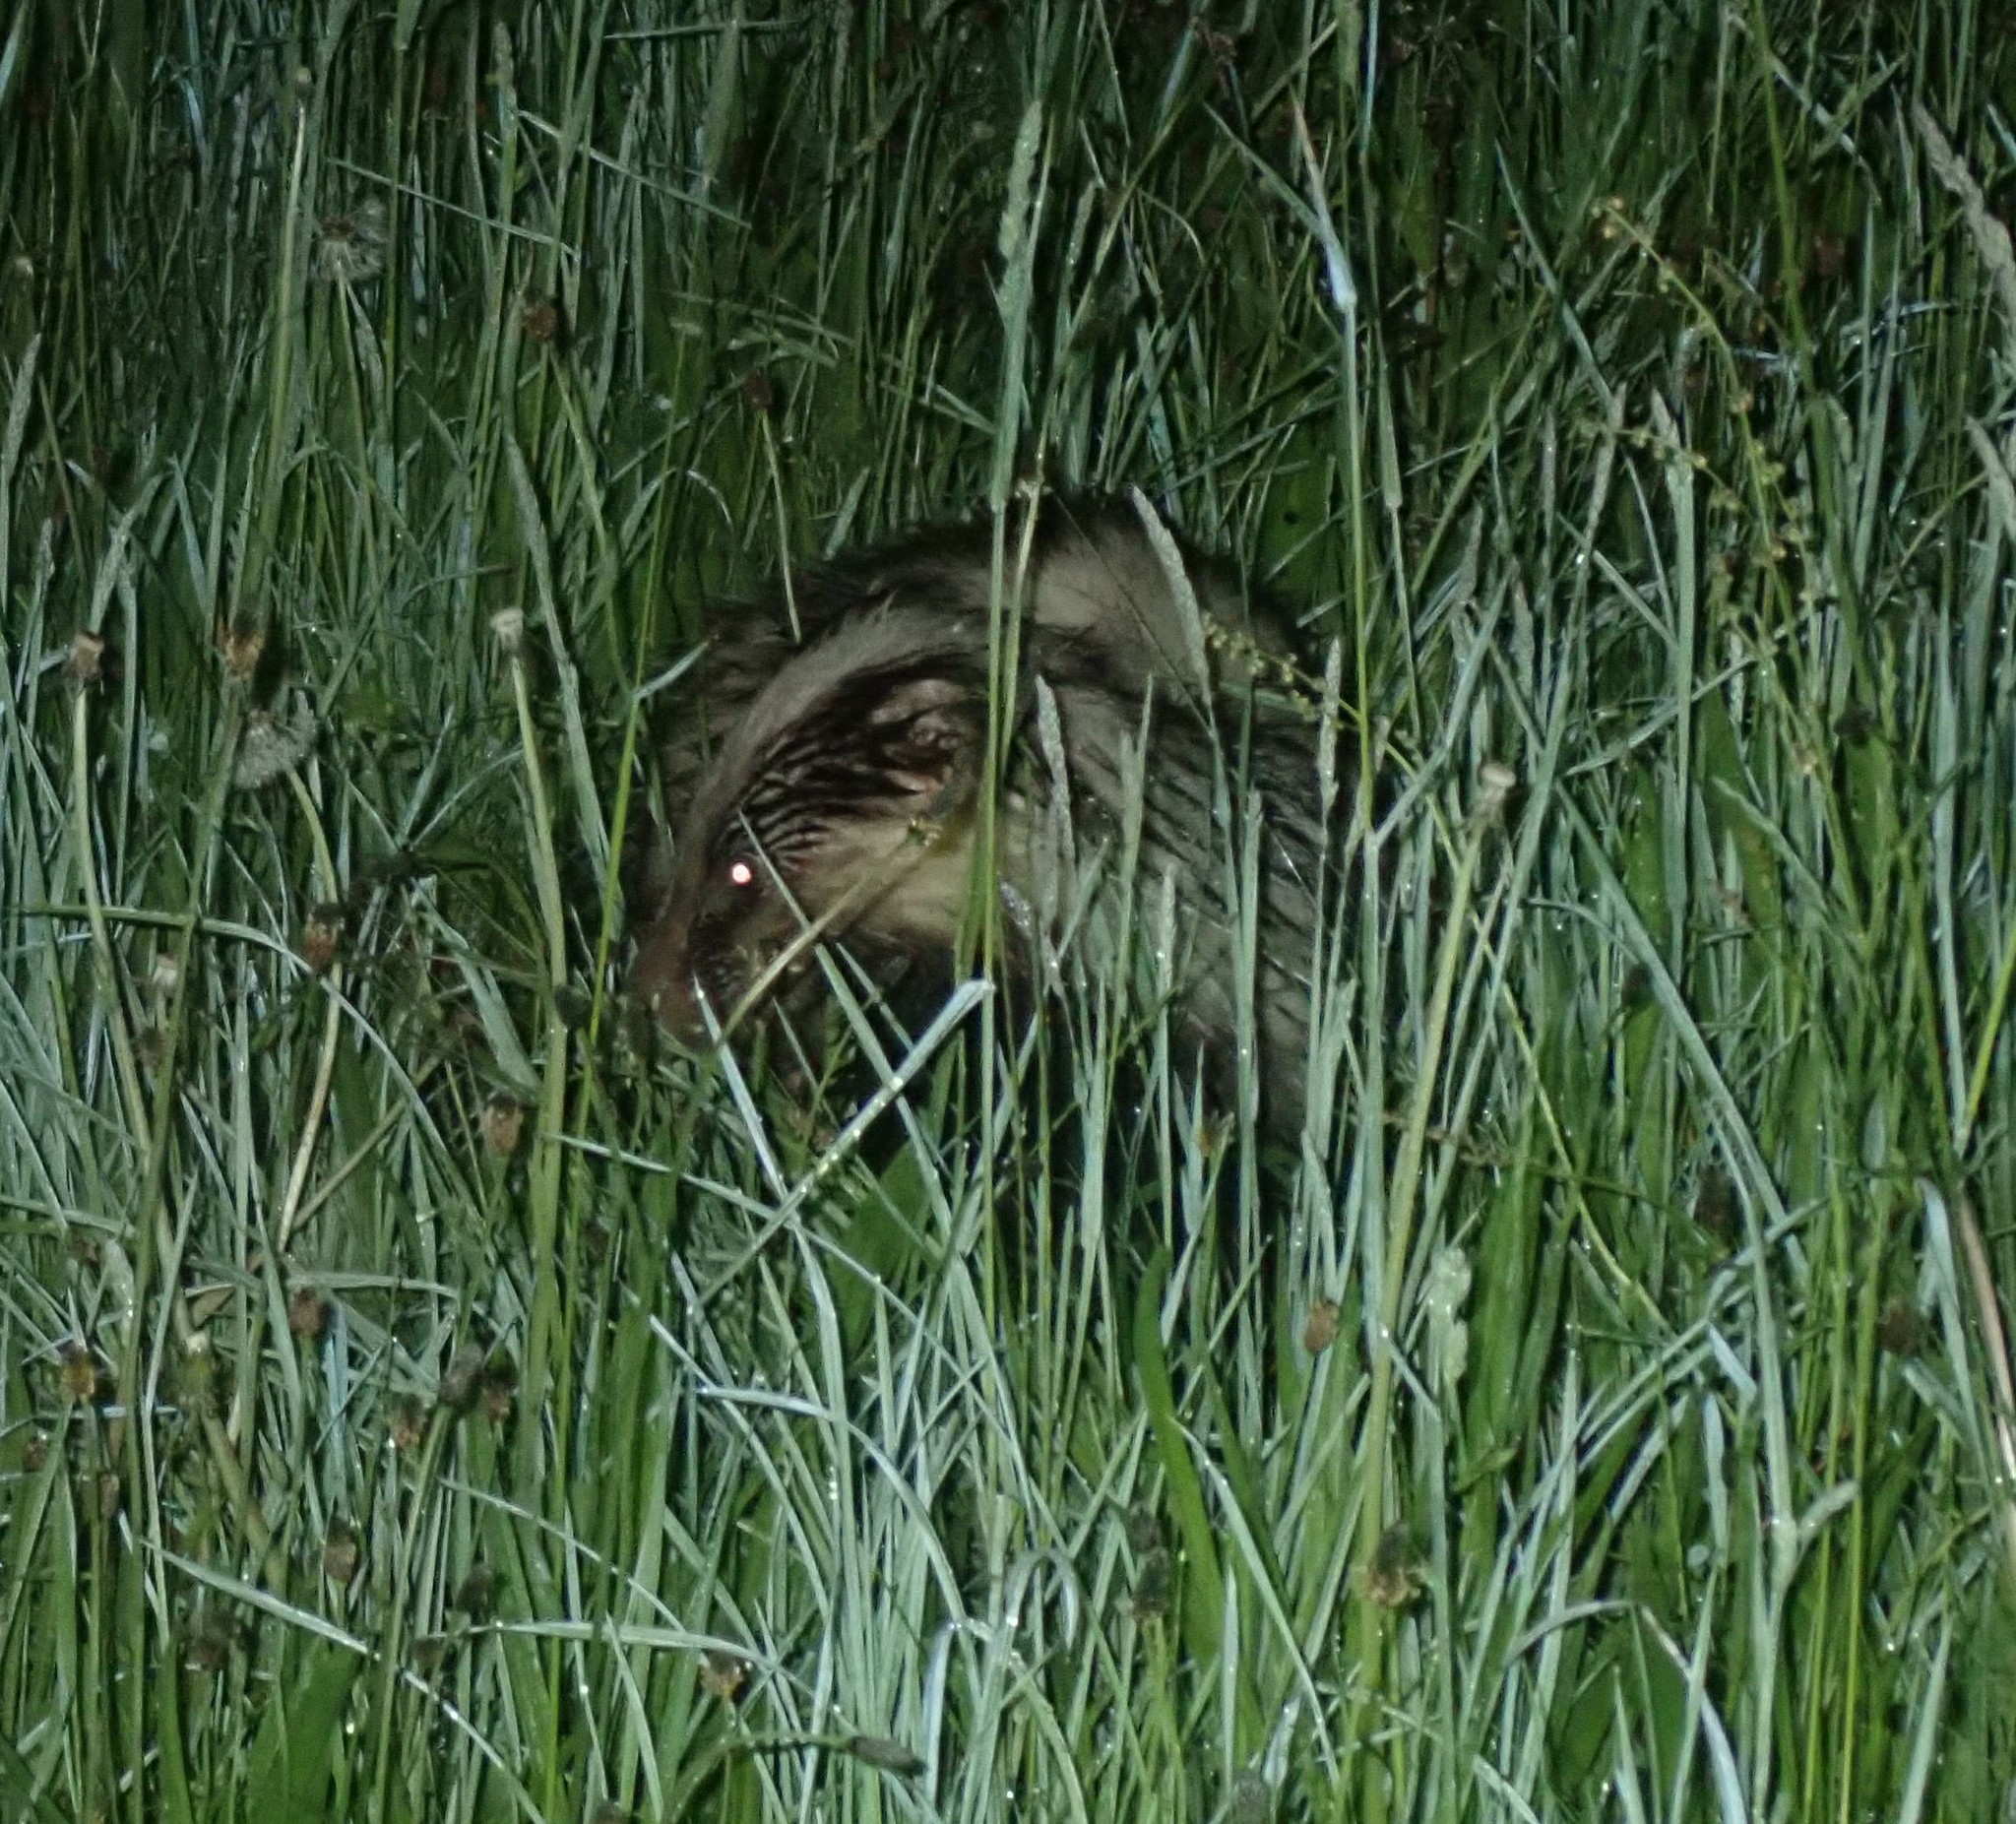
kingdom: Animalia
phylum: Chordata
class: Mammalia
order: Carnivora
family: Mustelidae
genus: Meles
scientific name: Meles meles
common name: Eurasian badger
